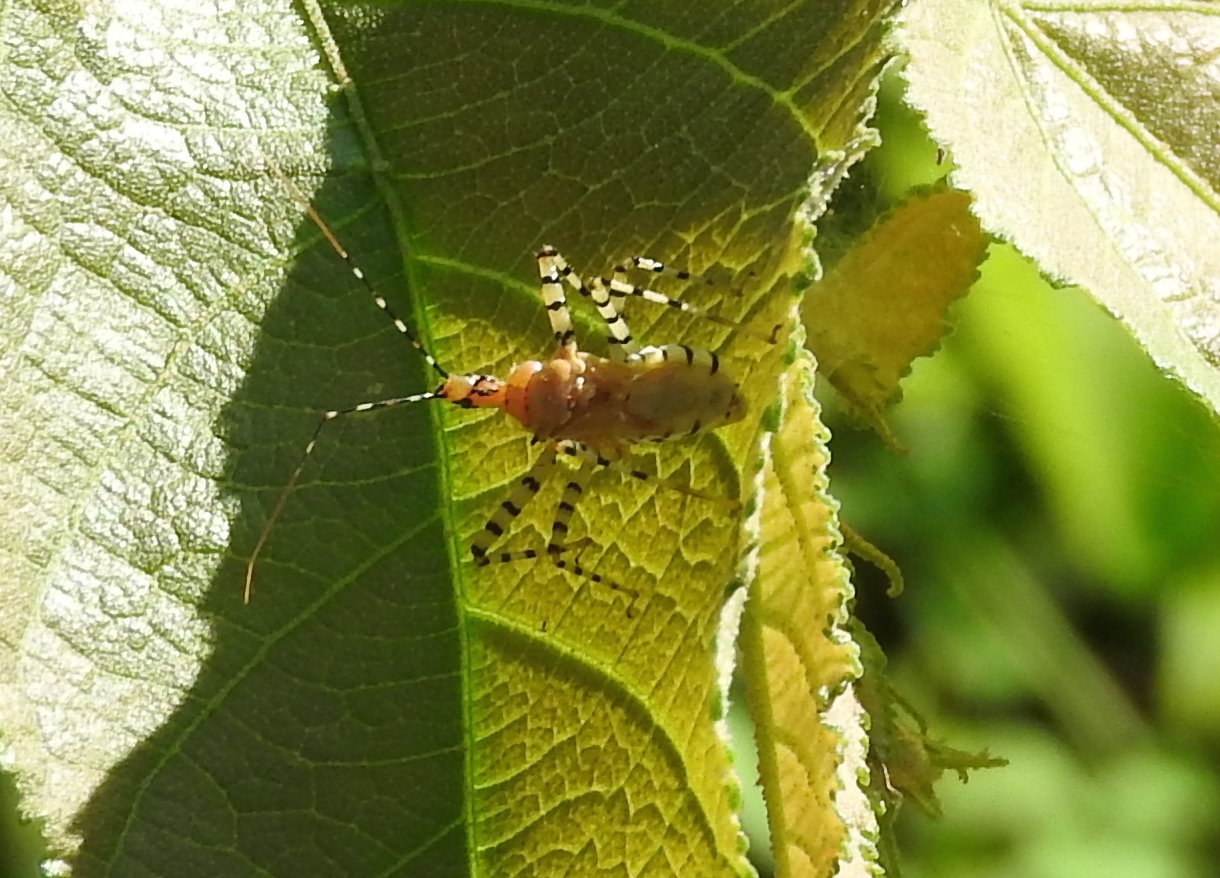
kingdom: Animalia
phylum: Arthropoda
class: Insecta
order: Hemiptera
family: Reduviidae
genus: Pselliopus
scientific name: Pselliopus
